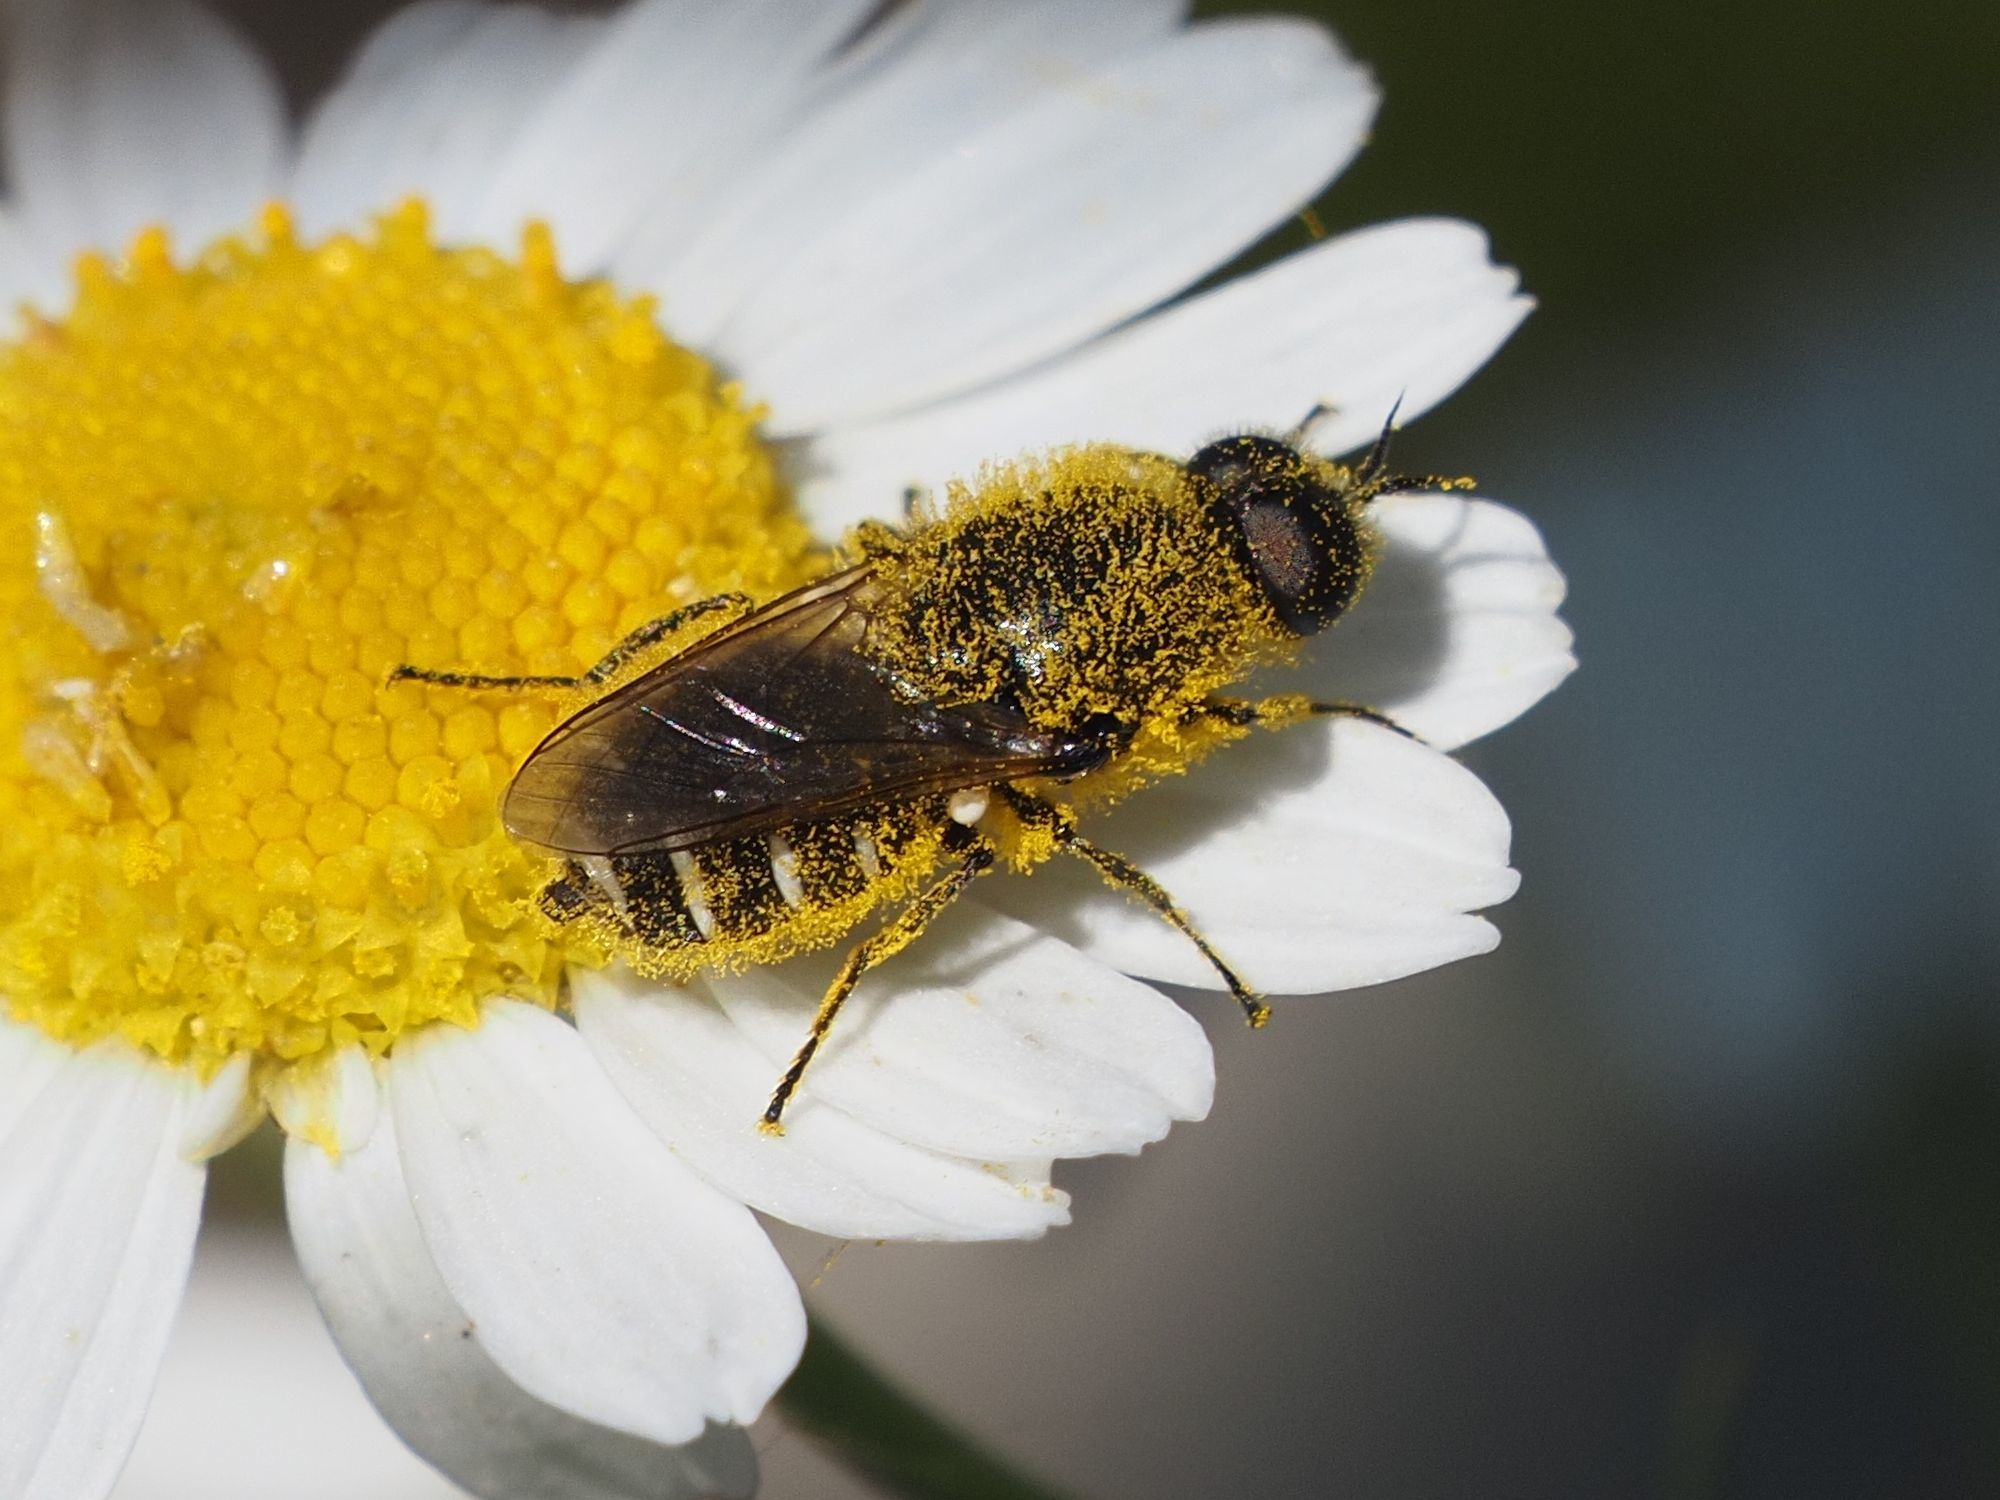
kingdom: Animalia
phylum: Arthropoda
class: Insecta
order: Diptera
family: Stratiomyidae
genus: Lasiopa
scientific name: Lasiopa villosa
